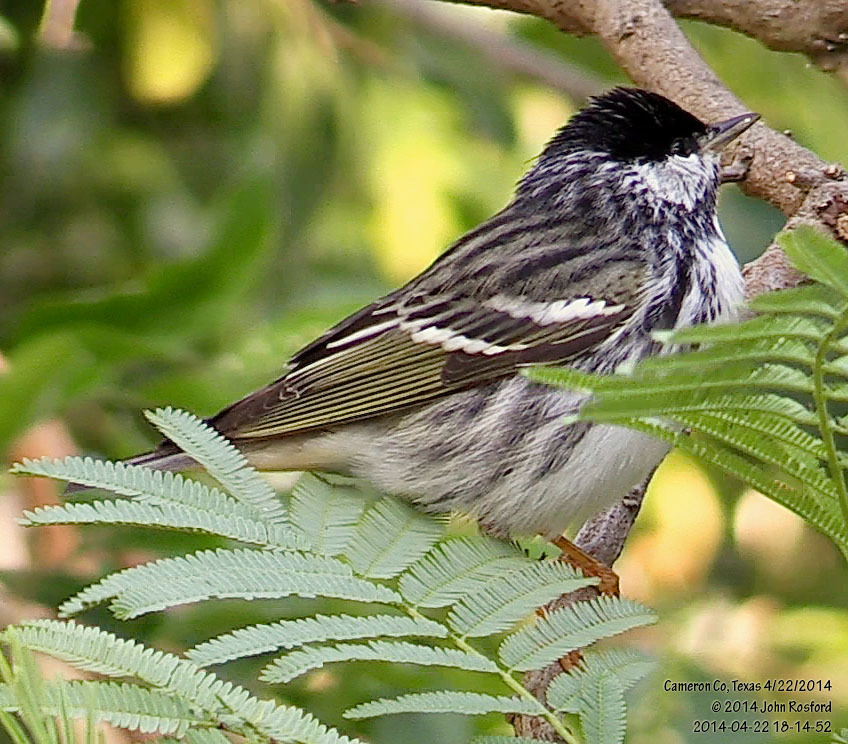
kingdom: Animalia
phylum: Chordata
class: Aves
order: Passeriformes
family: Parulidae
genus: Setophaga
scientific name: Setophaga striata
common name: Blackpoll warbler
